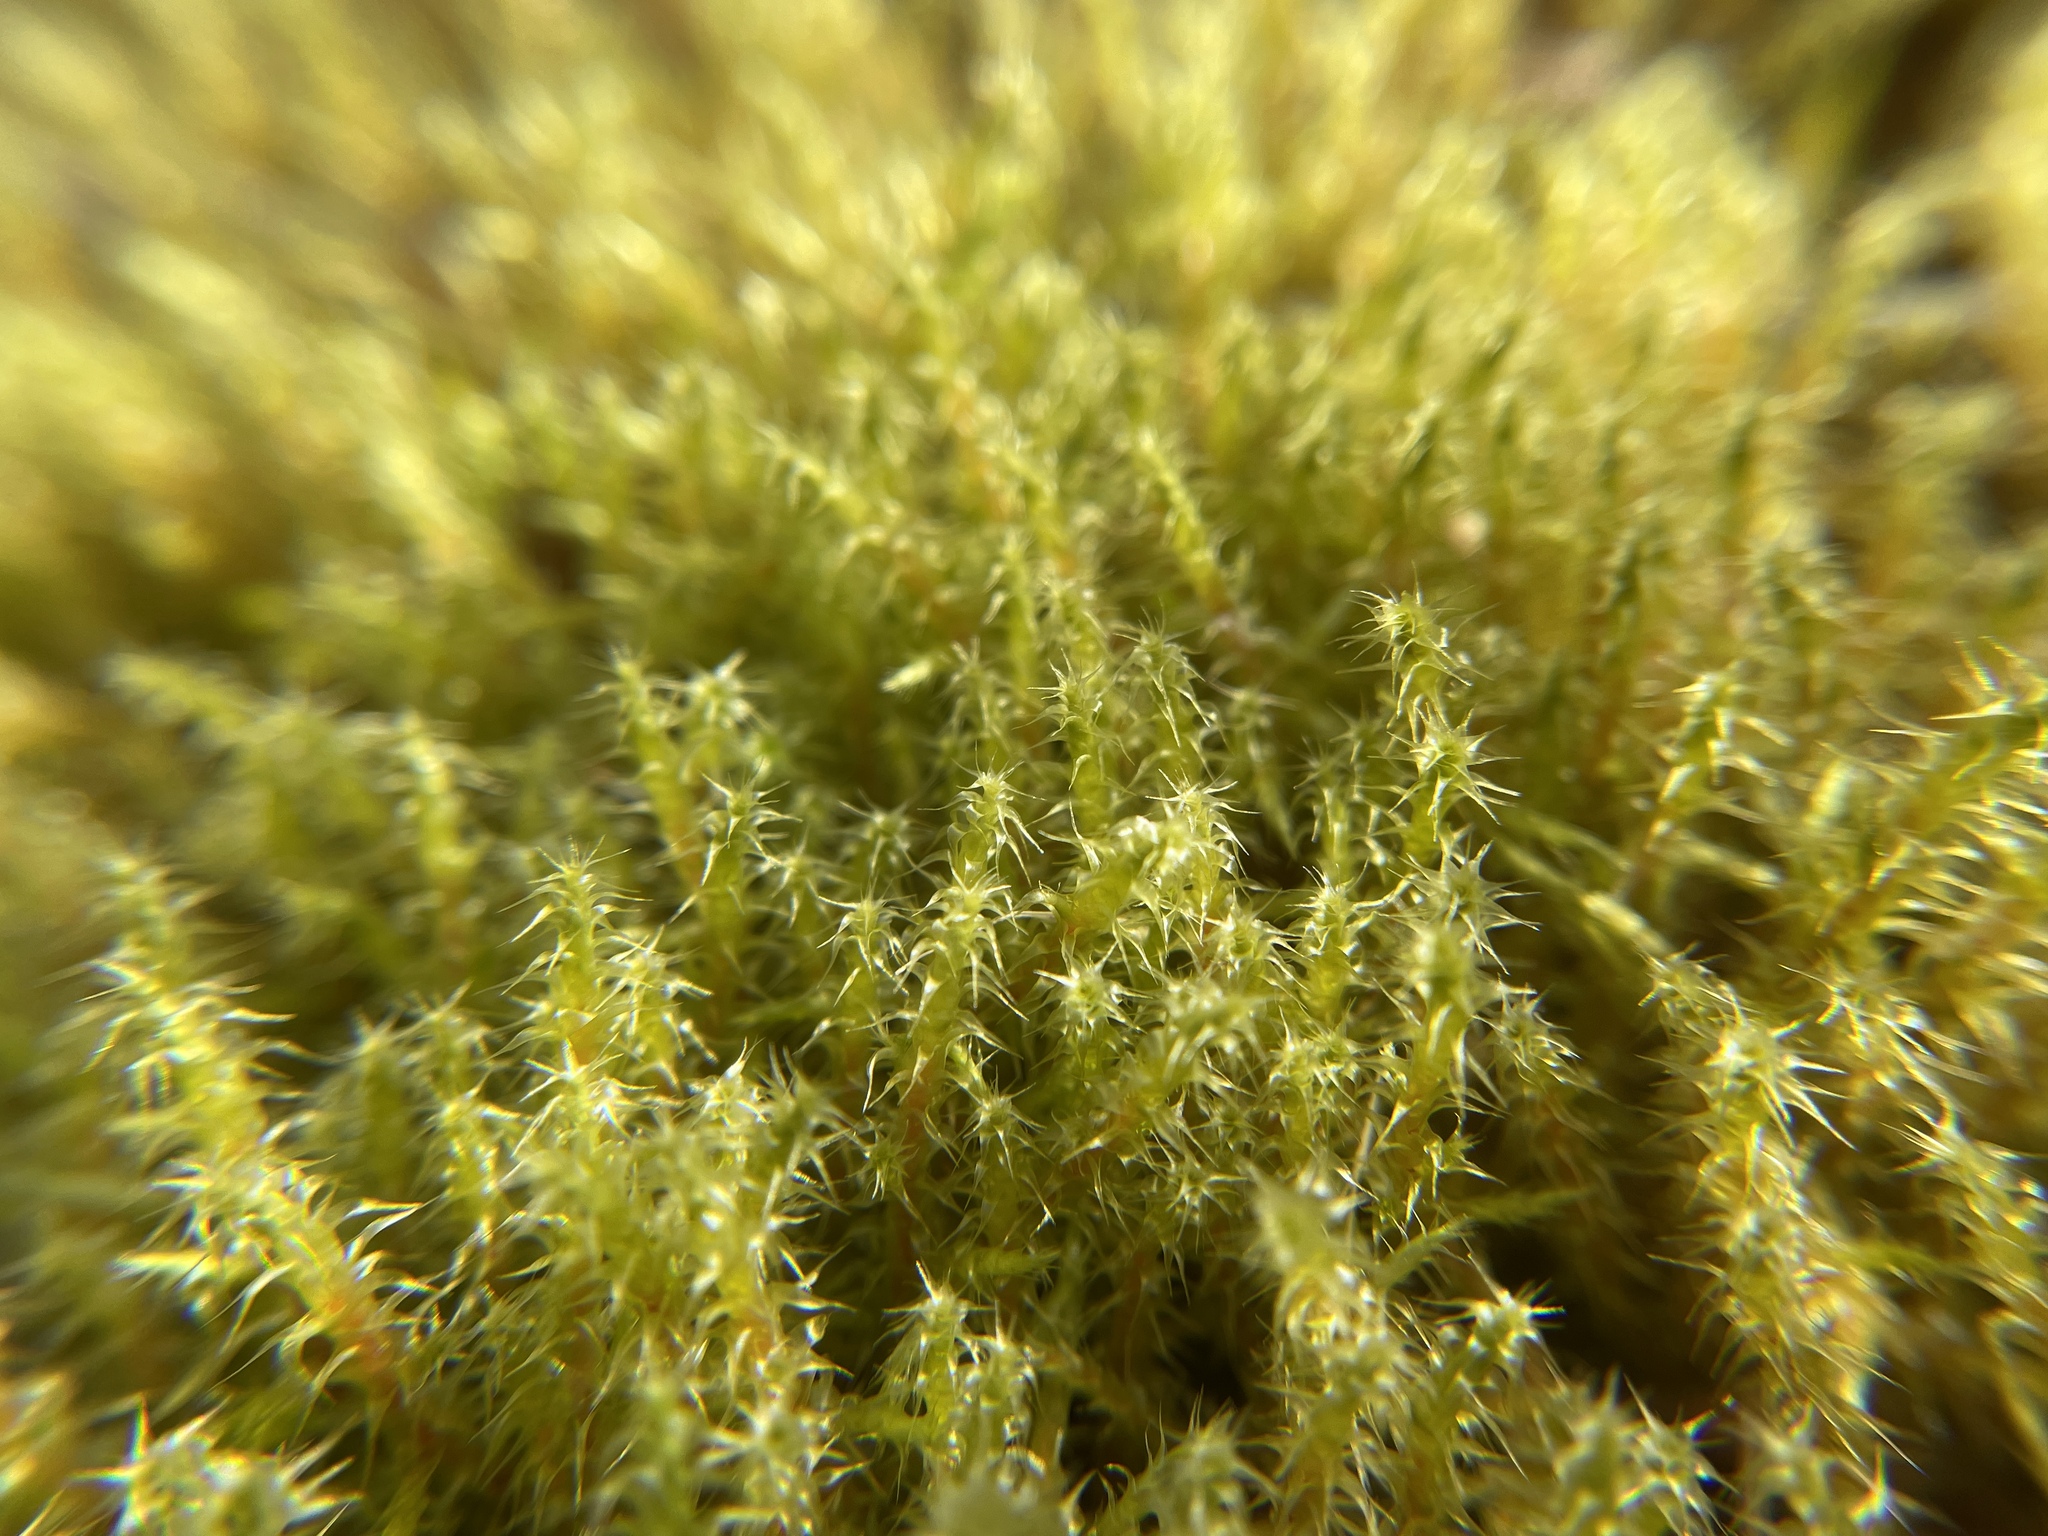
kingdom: Plantae
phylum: Bryophyta
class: Bryopsida
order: Hypnales
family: Hylocomiaceae
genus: Rhytidiadelphus
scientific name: Rhytidiadelphus squarrosus
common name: Springy turf-moss
